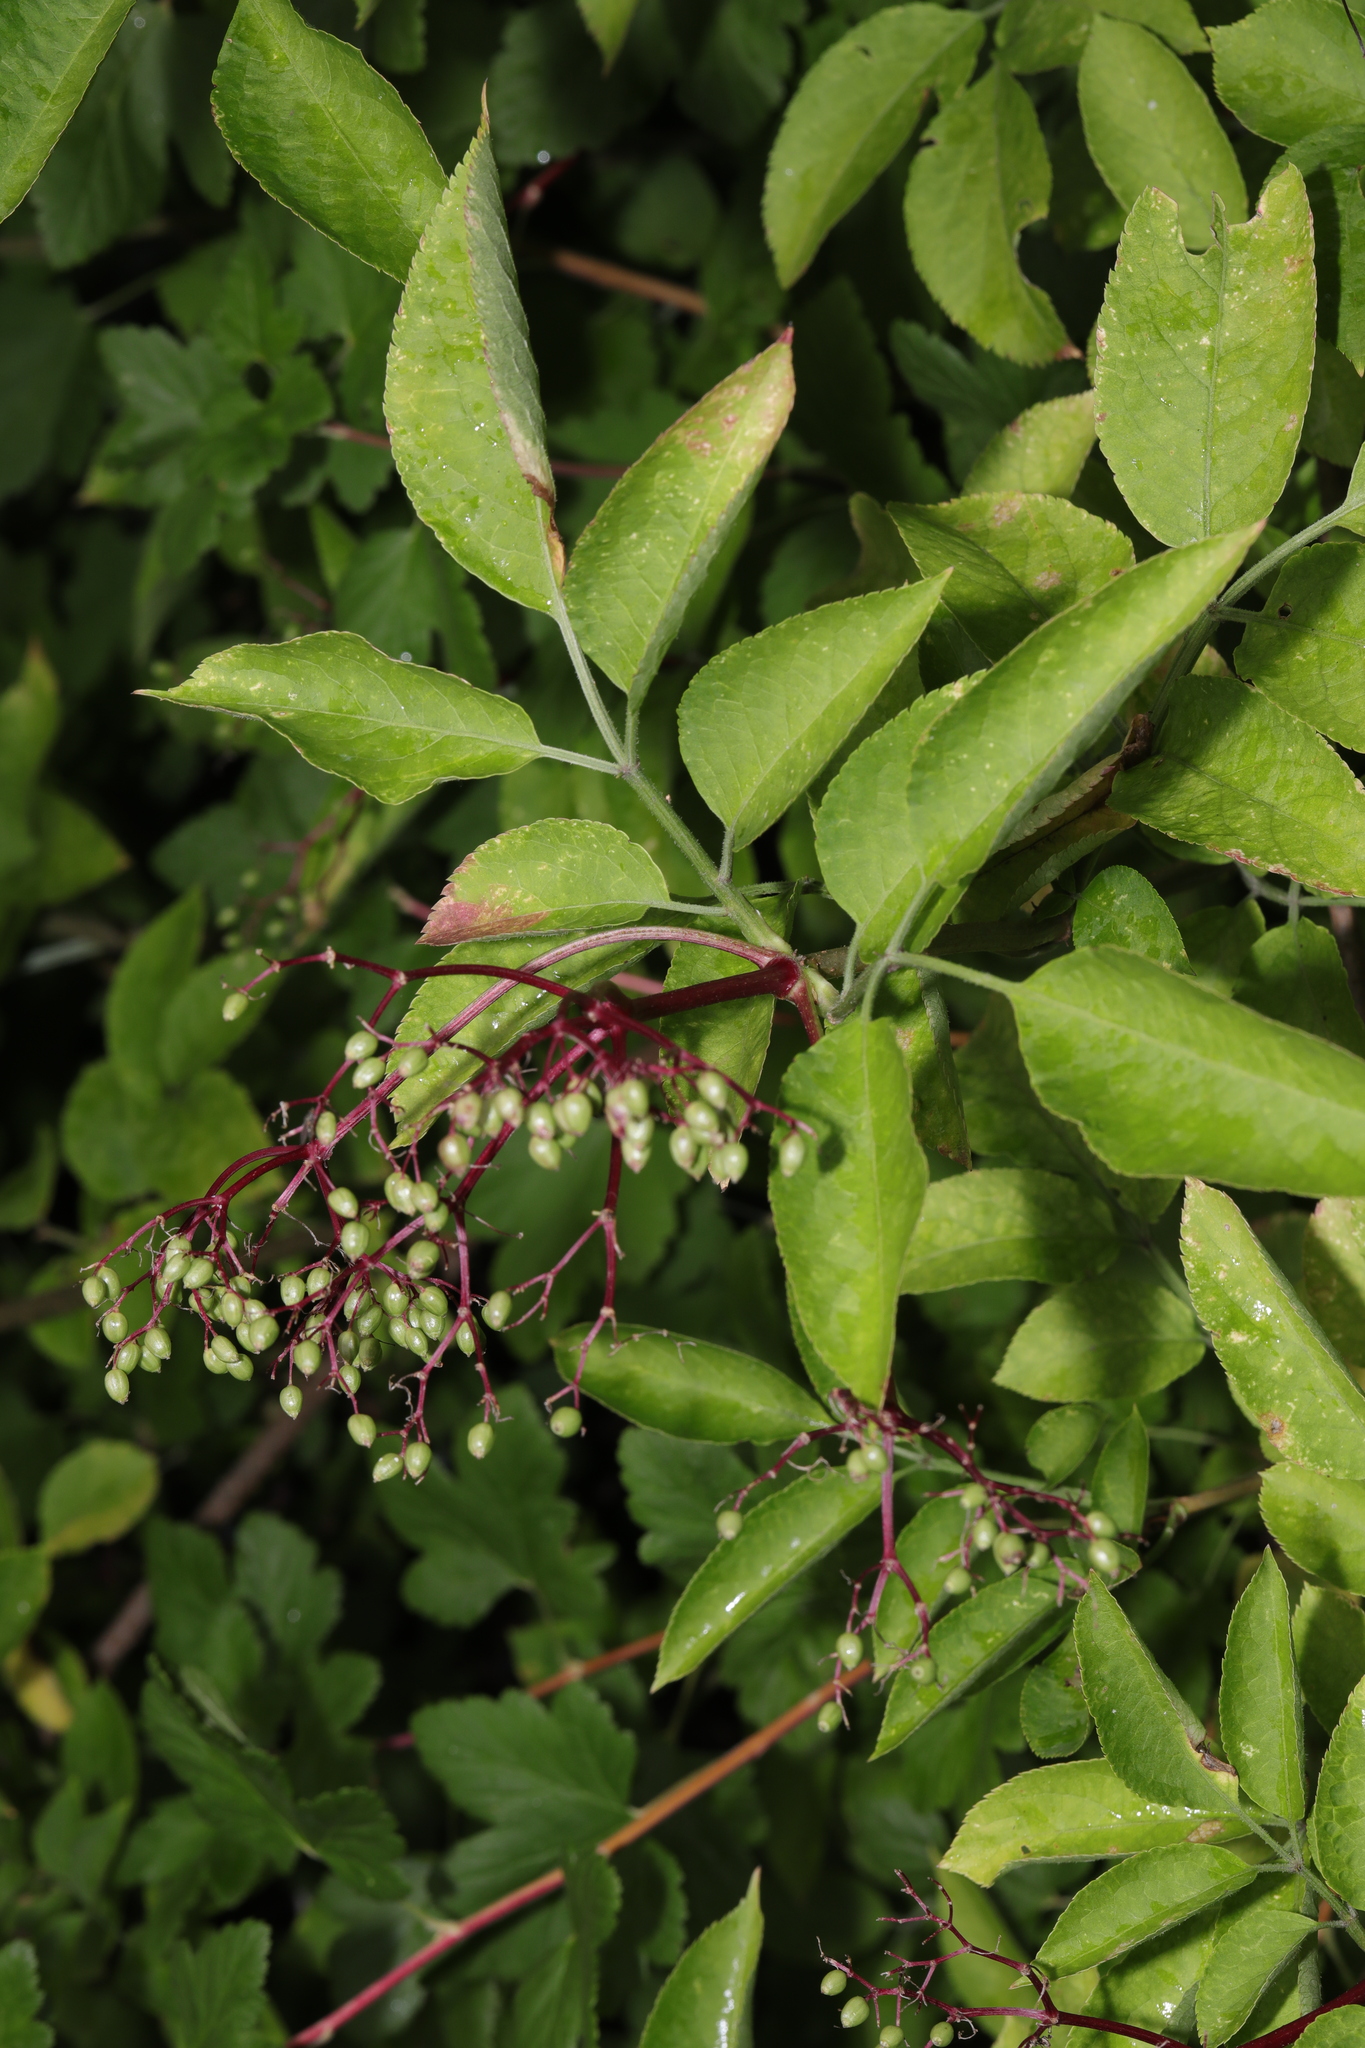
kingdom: Plantae
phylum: Tracheophyta
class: Magnoliopsida
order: Dipsacales
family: Viburnaceae
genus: Sambucus
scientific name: Sambucus nigra
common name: Elder
